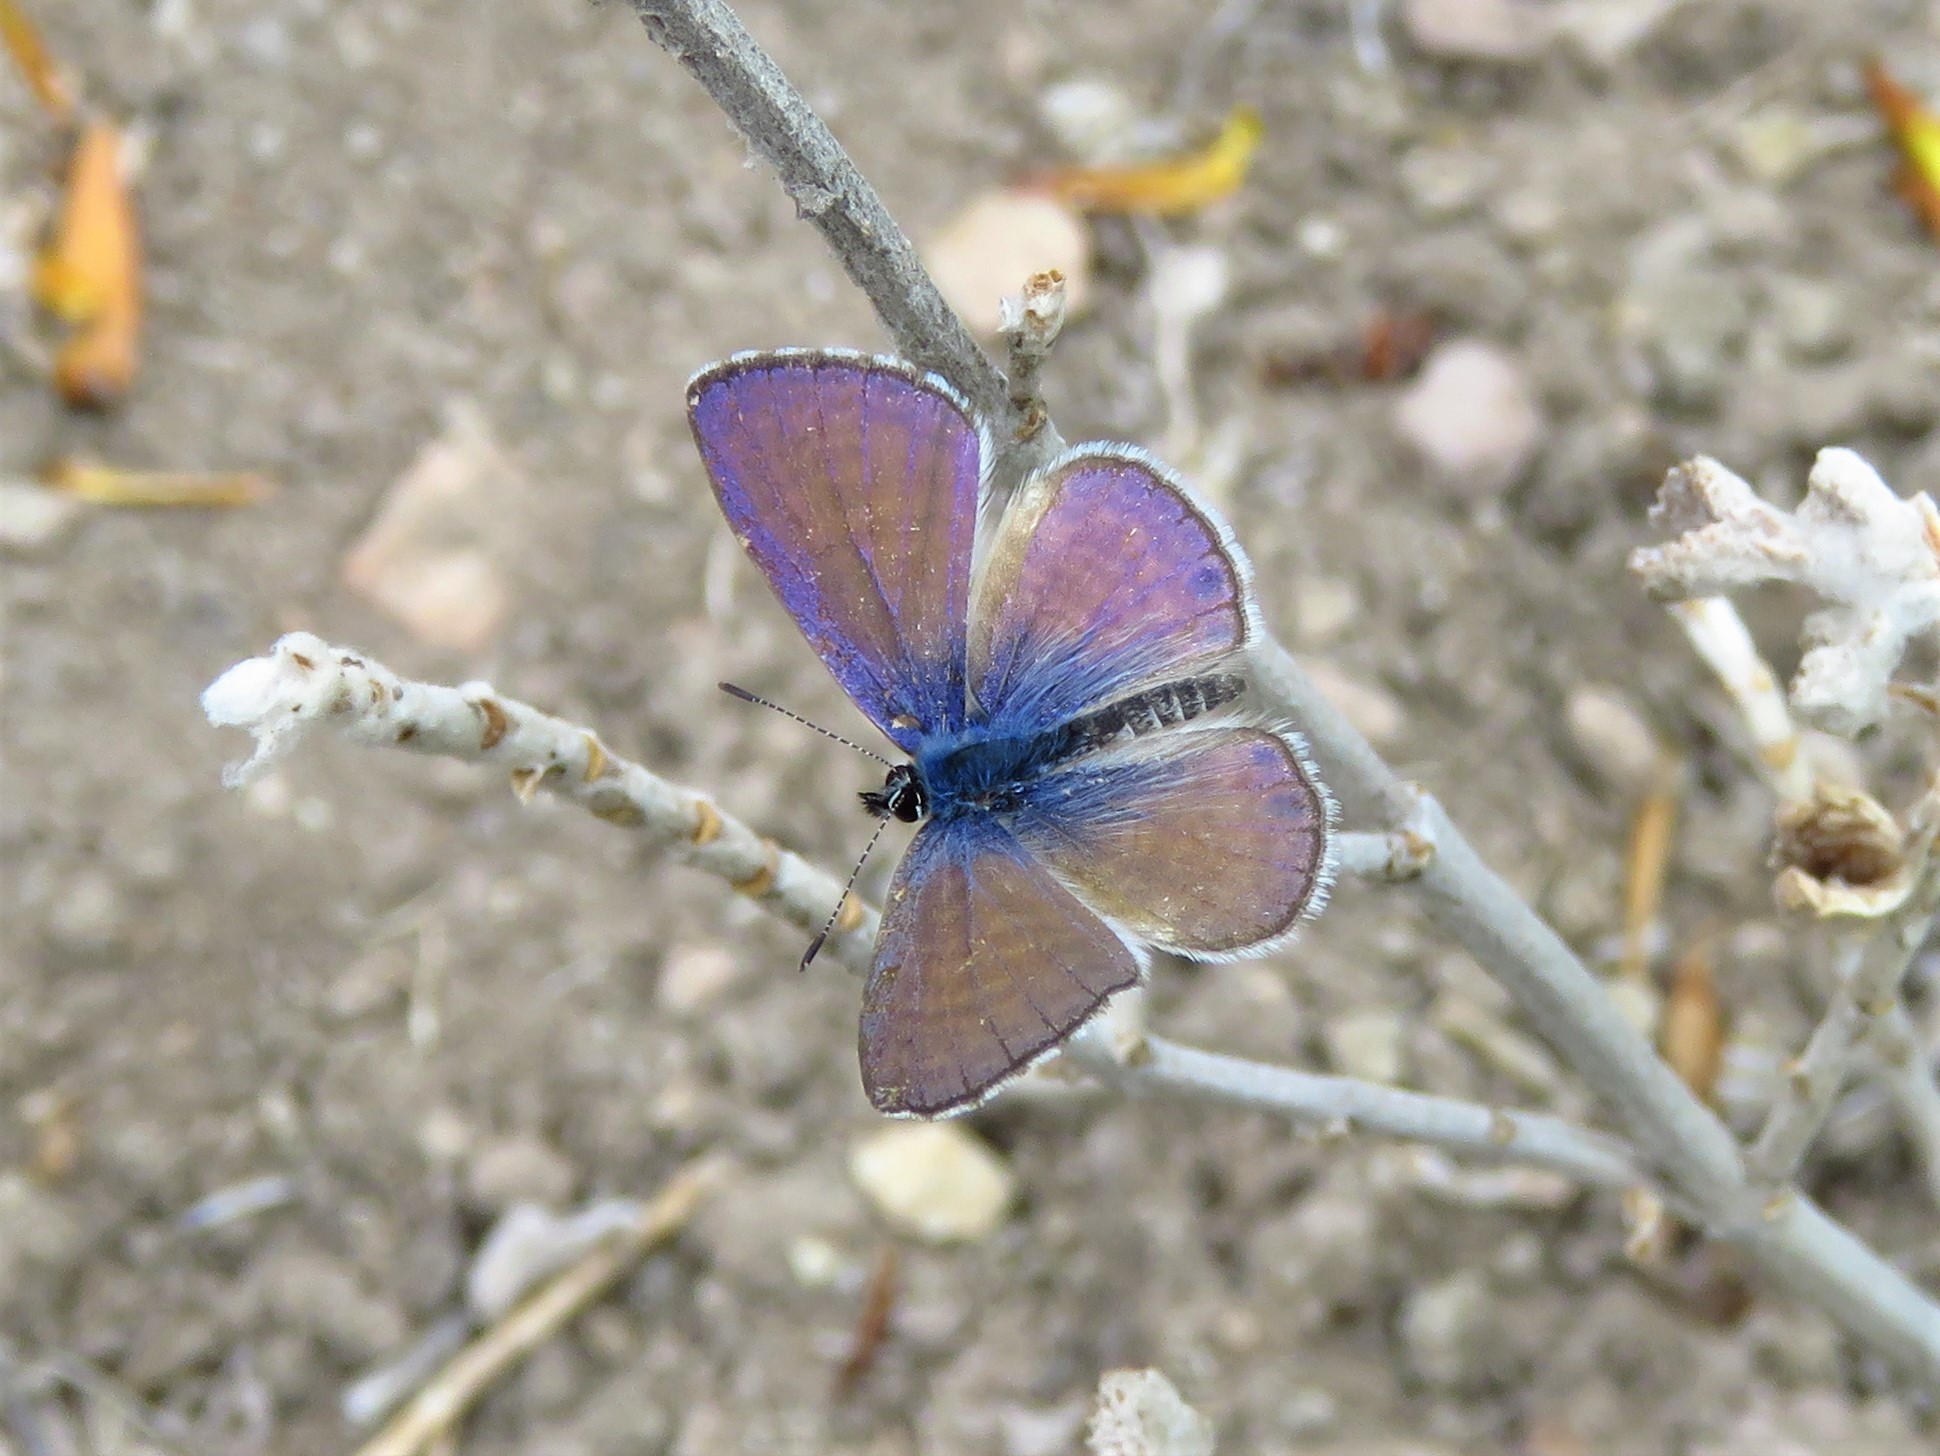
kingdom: Animalia
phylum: Arthropoda
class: Insecta
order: Lepidoptera
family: Lycaenidae
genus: Leptotes
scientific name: Leptotes marina
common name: Marine blue
